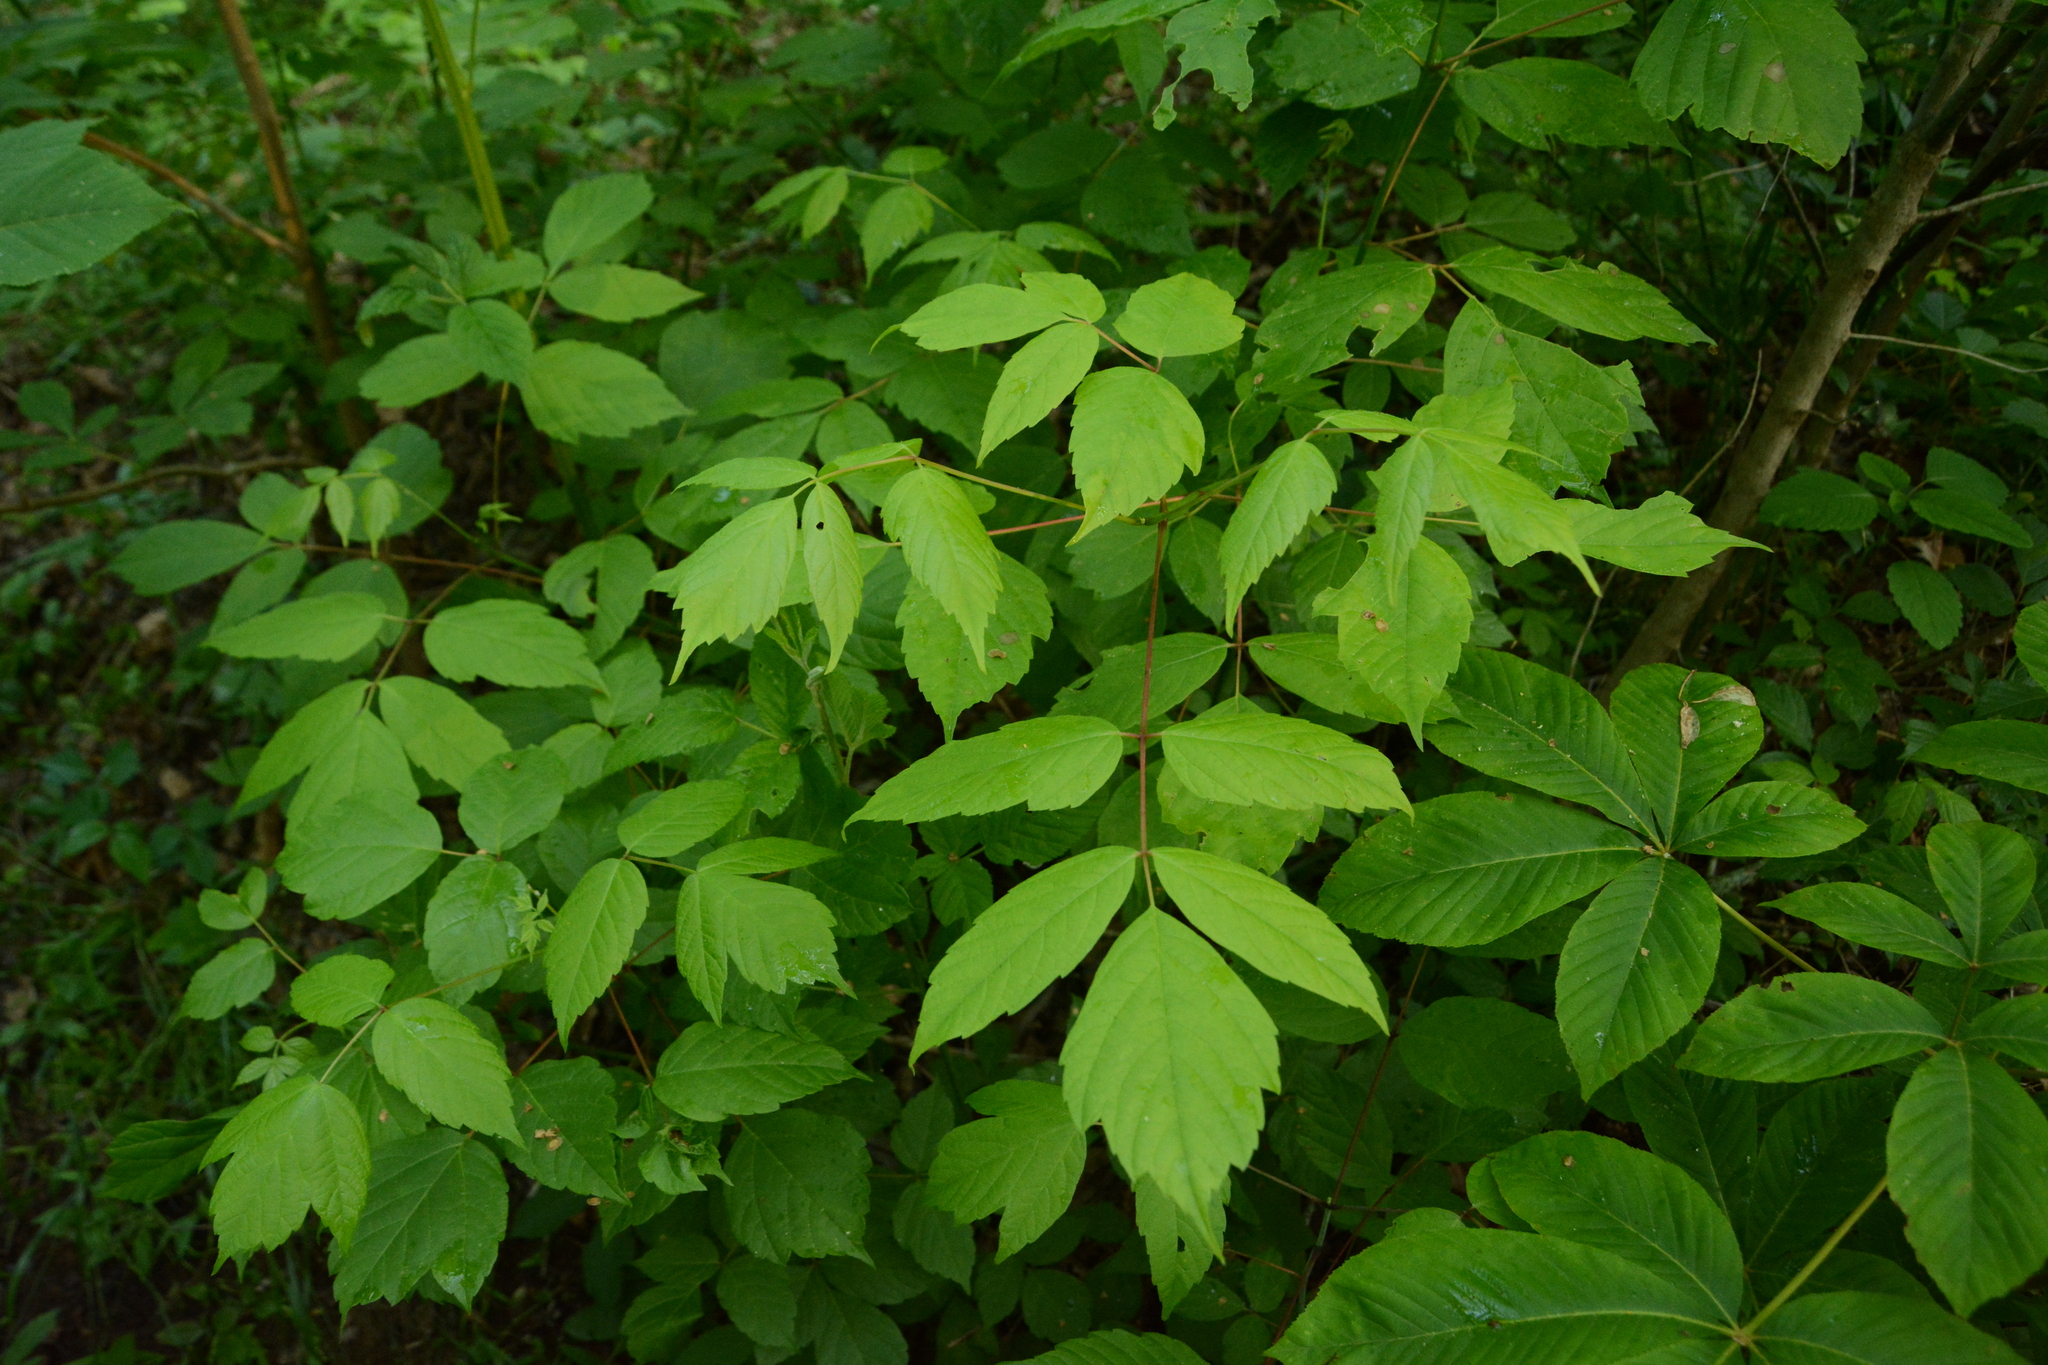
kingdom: Plantae
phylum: Tracheophyta
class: Magnoliopsida
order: Sapindales
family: Sapindaceae
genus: Acer
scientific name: Acer negundo
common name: Ashleaf maple
